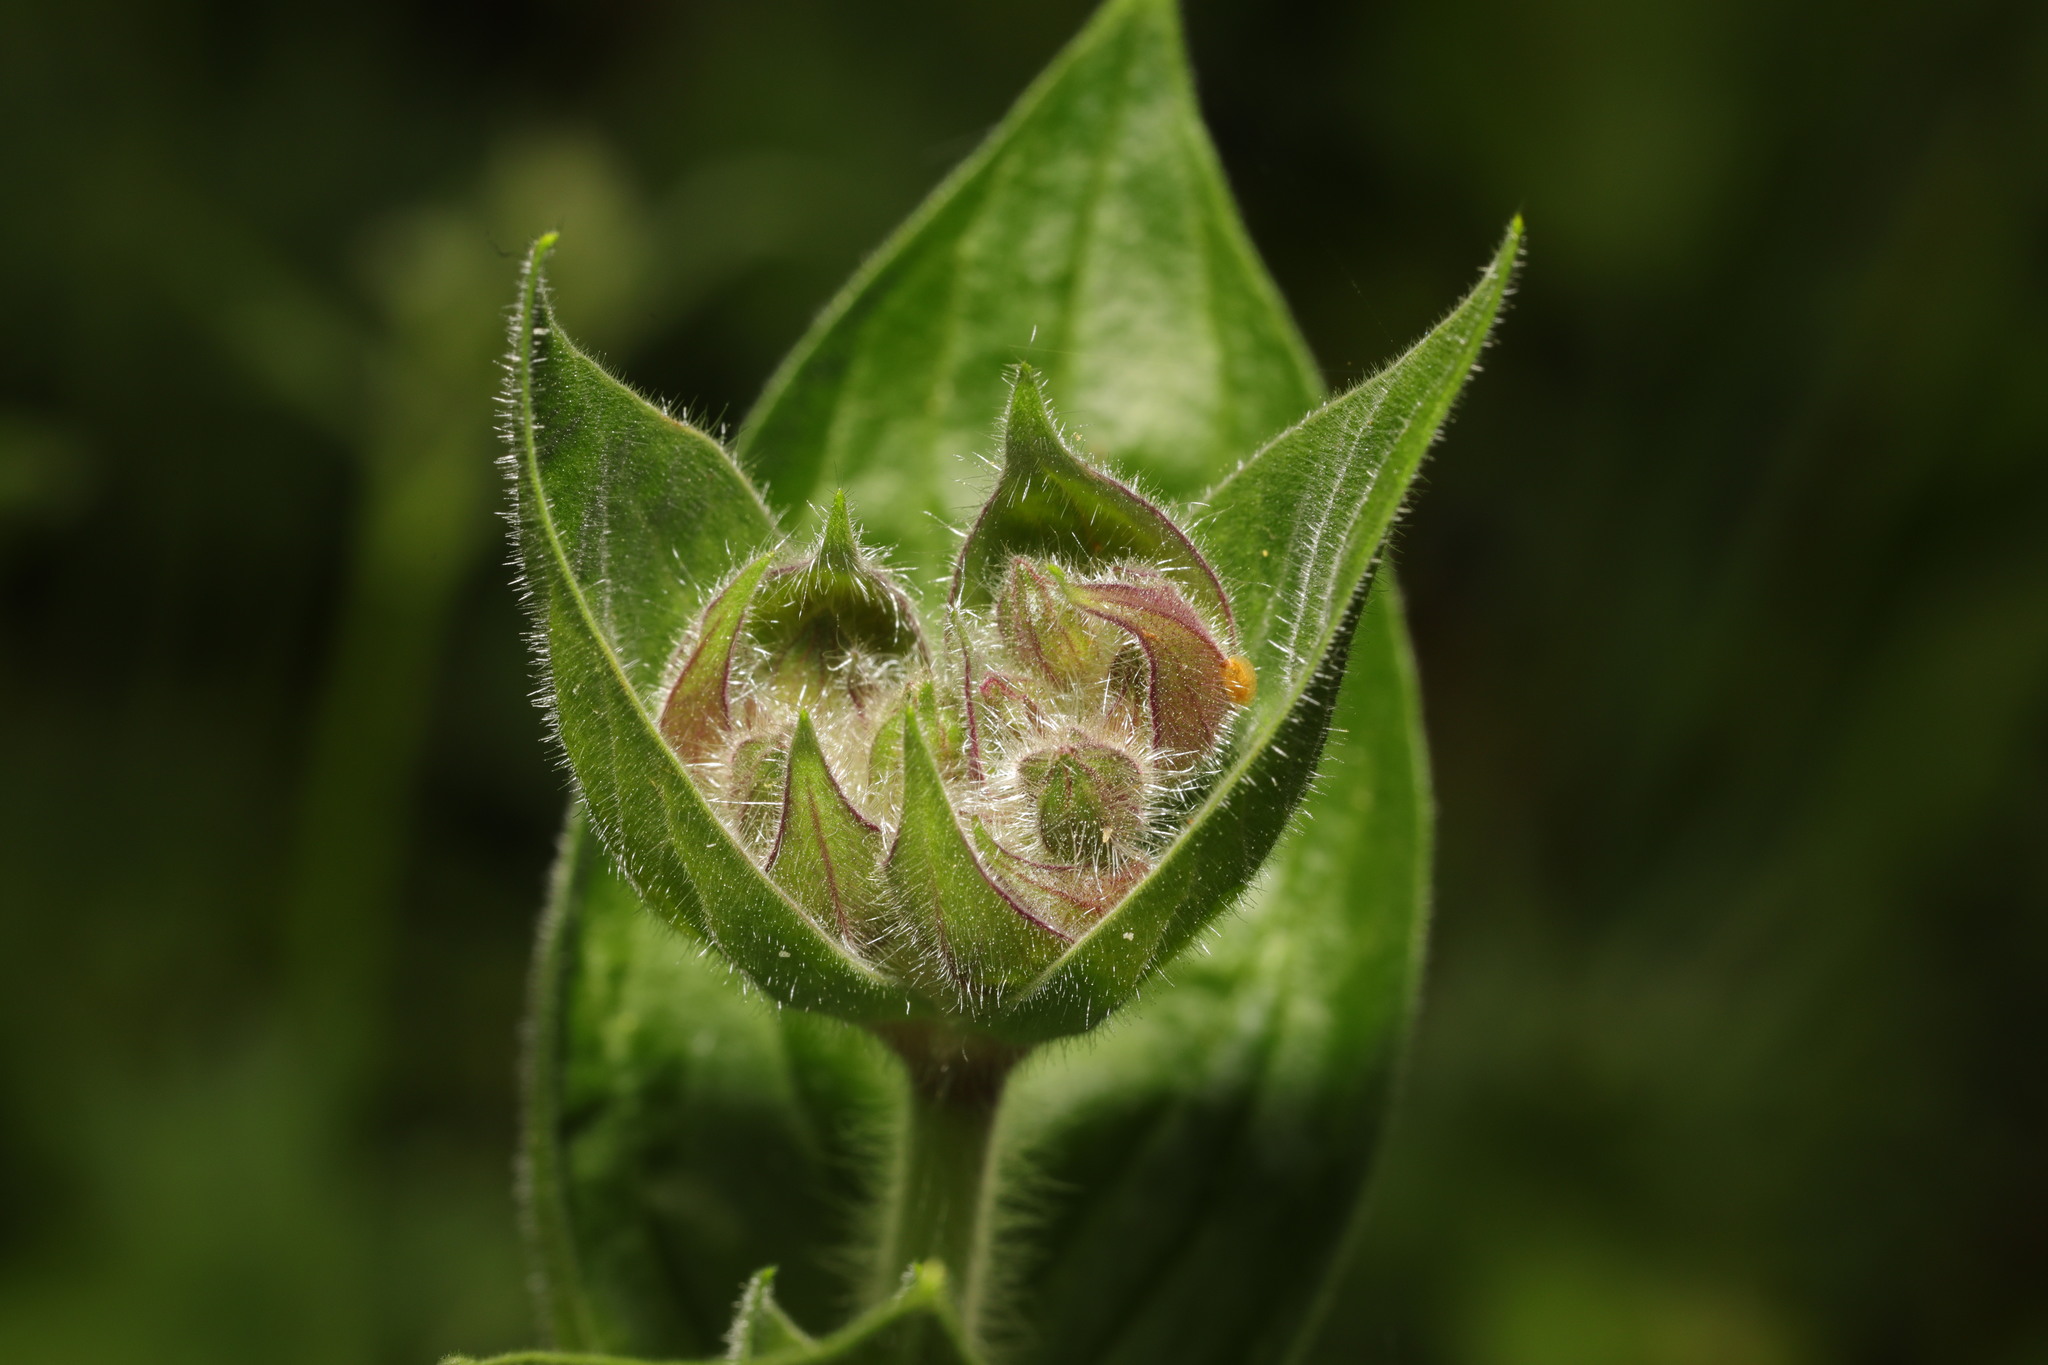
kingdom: Plantae
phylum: Tracheophyta
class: Magnoliopsida
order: Caryophyllales
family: Caryophyllaceae
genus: Silene
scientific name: Silene dioica
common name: Red campion
